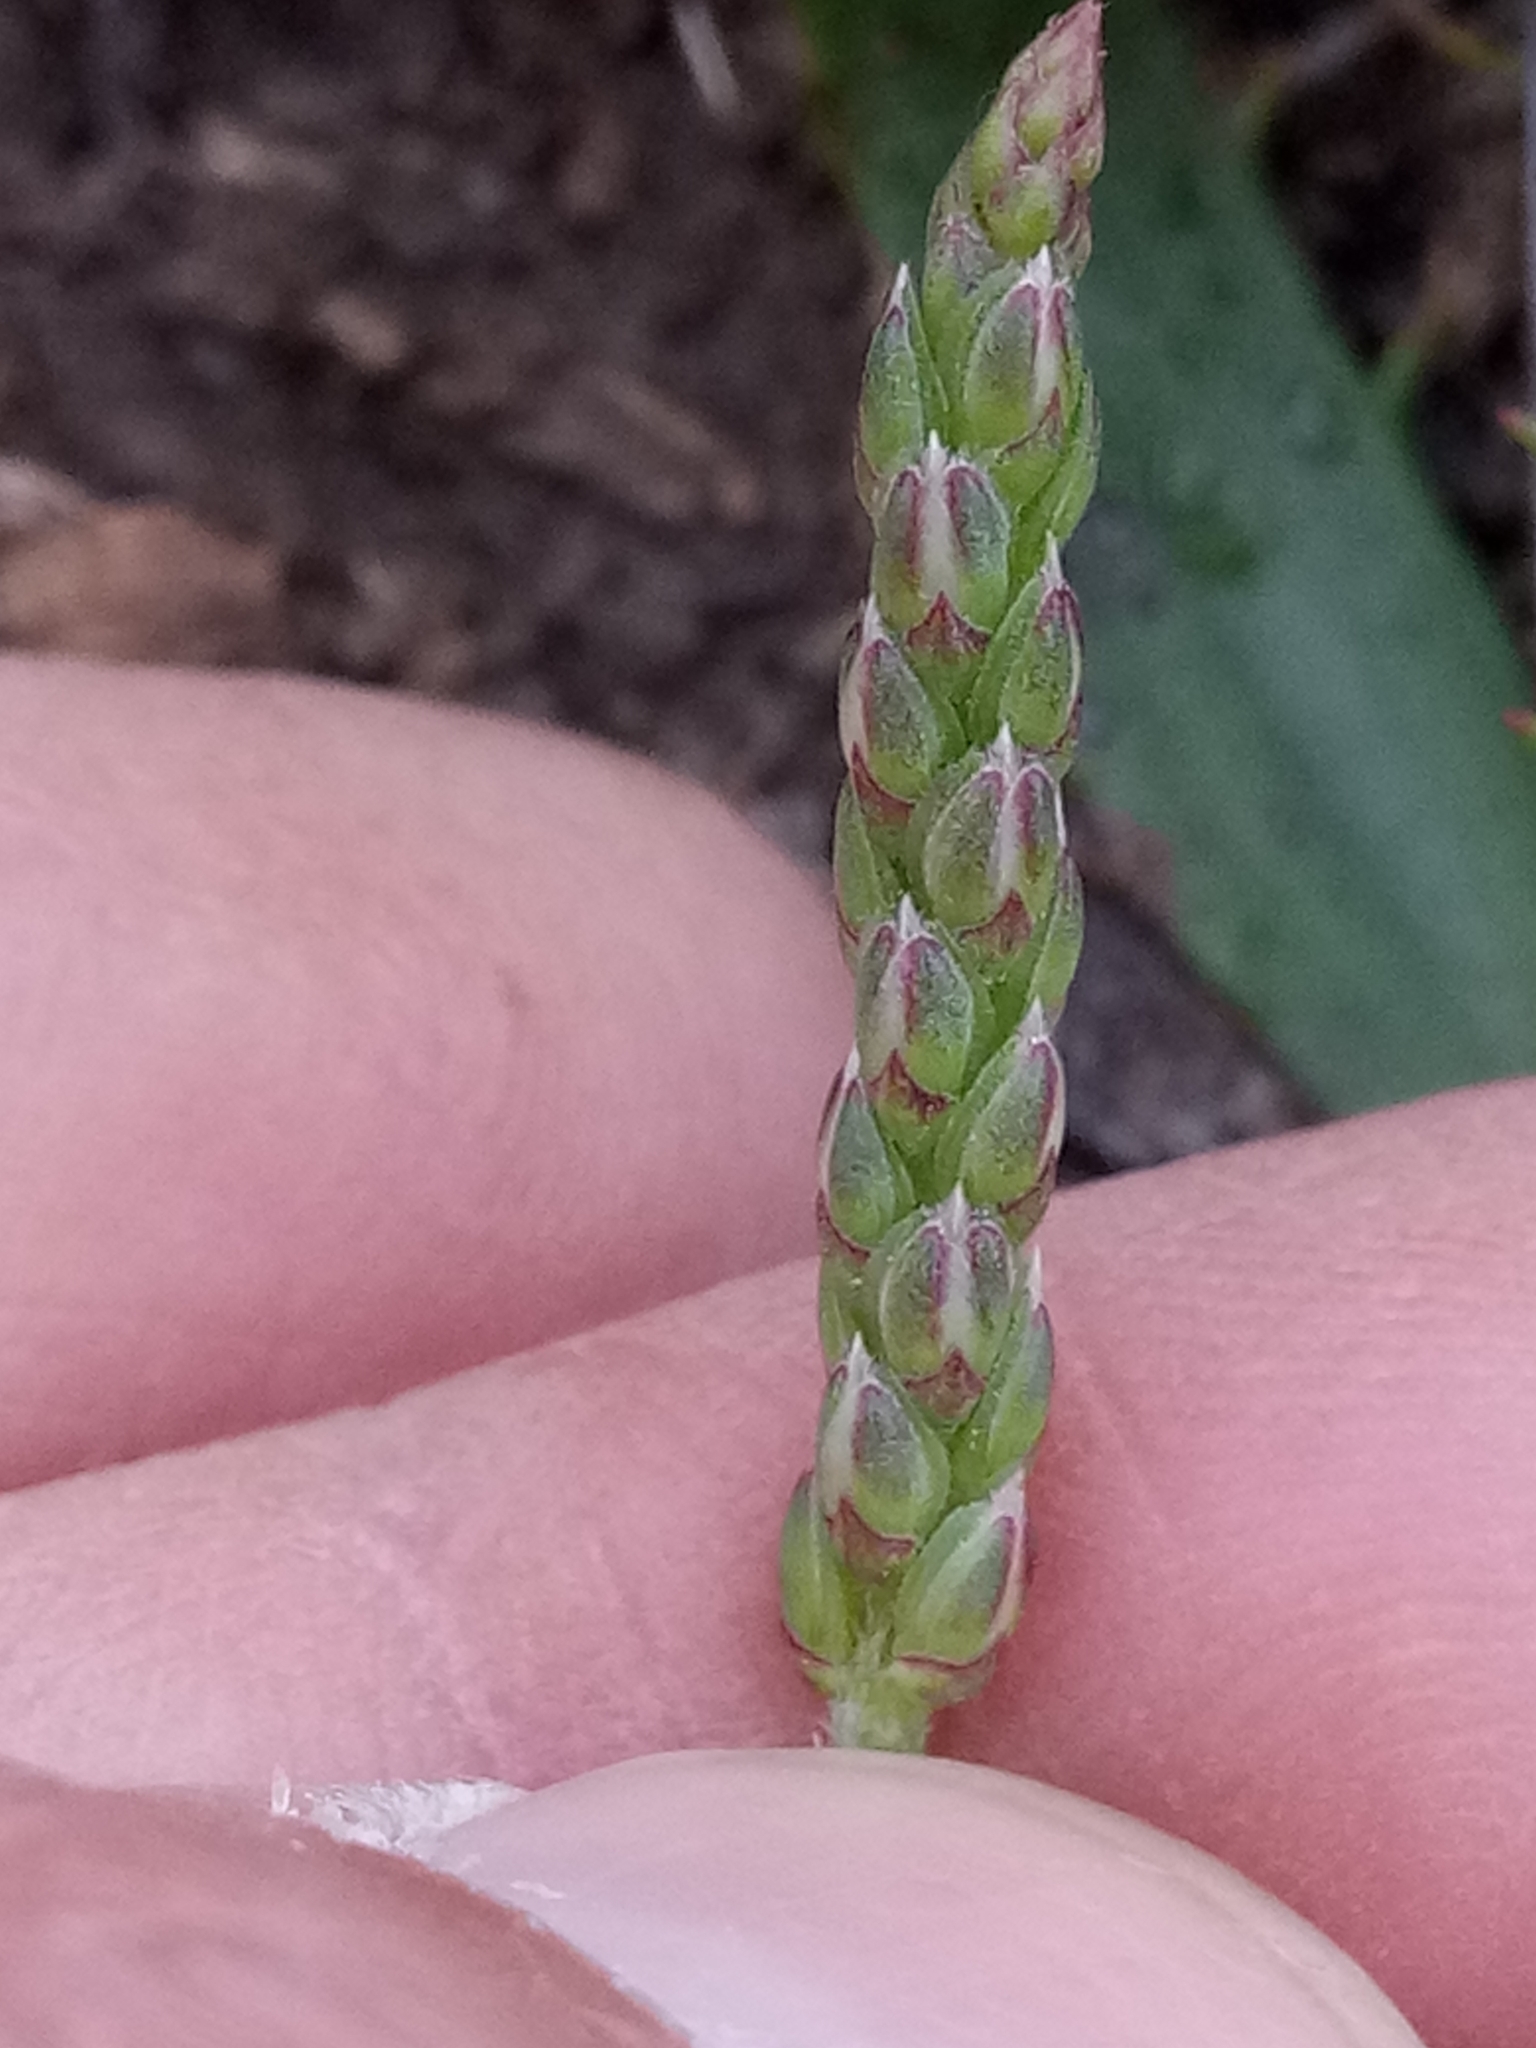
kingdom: Plantae
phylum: Tracheophyta
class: Magnoliopsida
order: Lamiales
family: Plantaginaceae
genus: Plantago
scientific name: Plantago serraria
